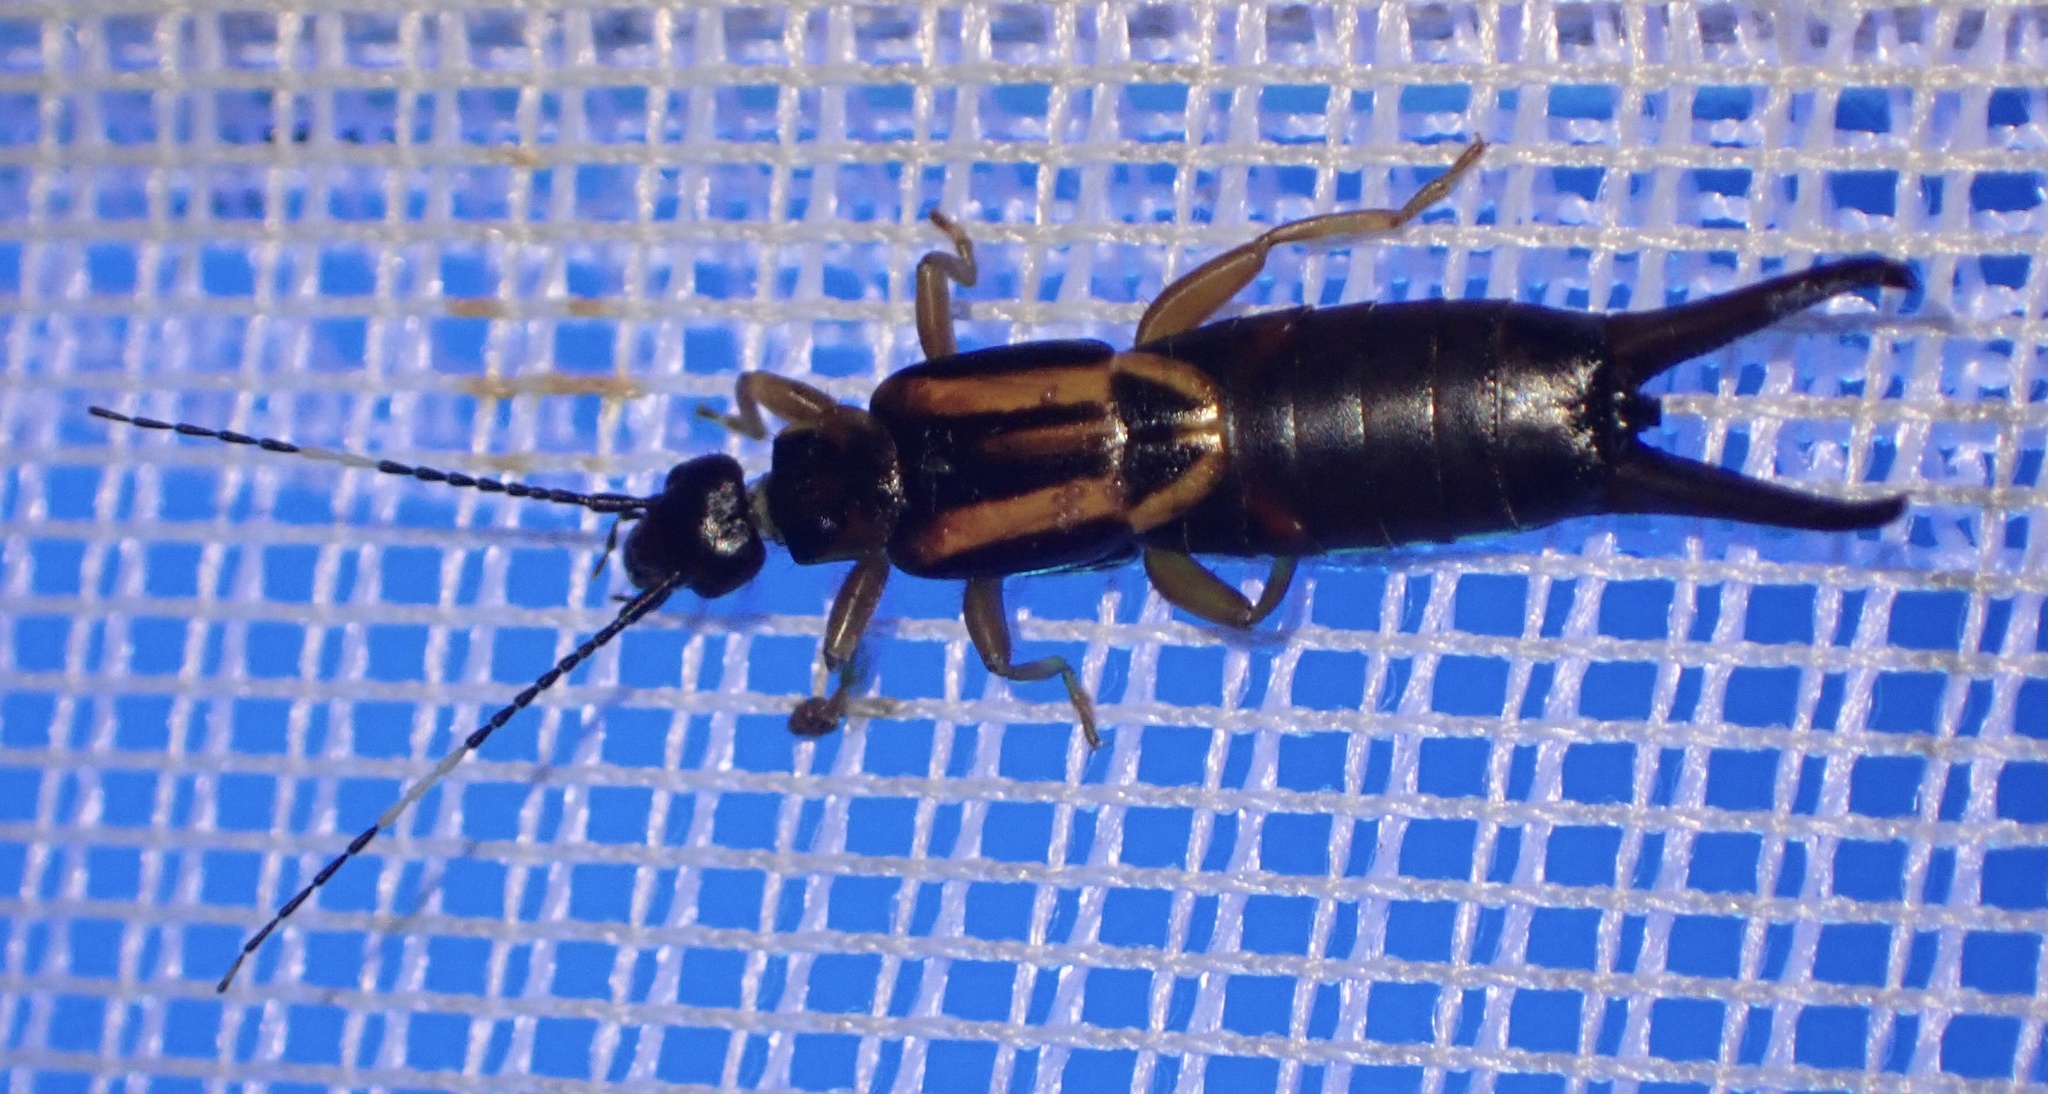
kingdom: Animalia
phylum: Arthropoda
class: Insecta
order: Dermaptera
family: Chelisochidae
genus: Euenkrates
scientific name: Euenkrates variegatum
